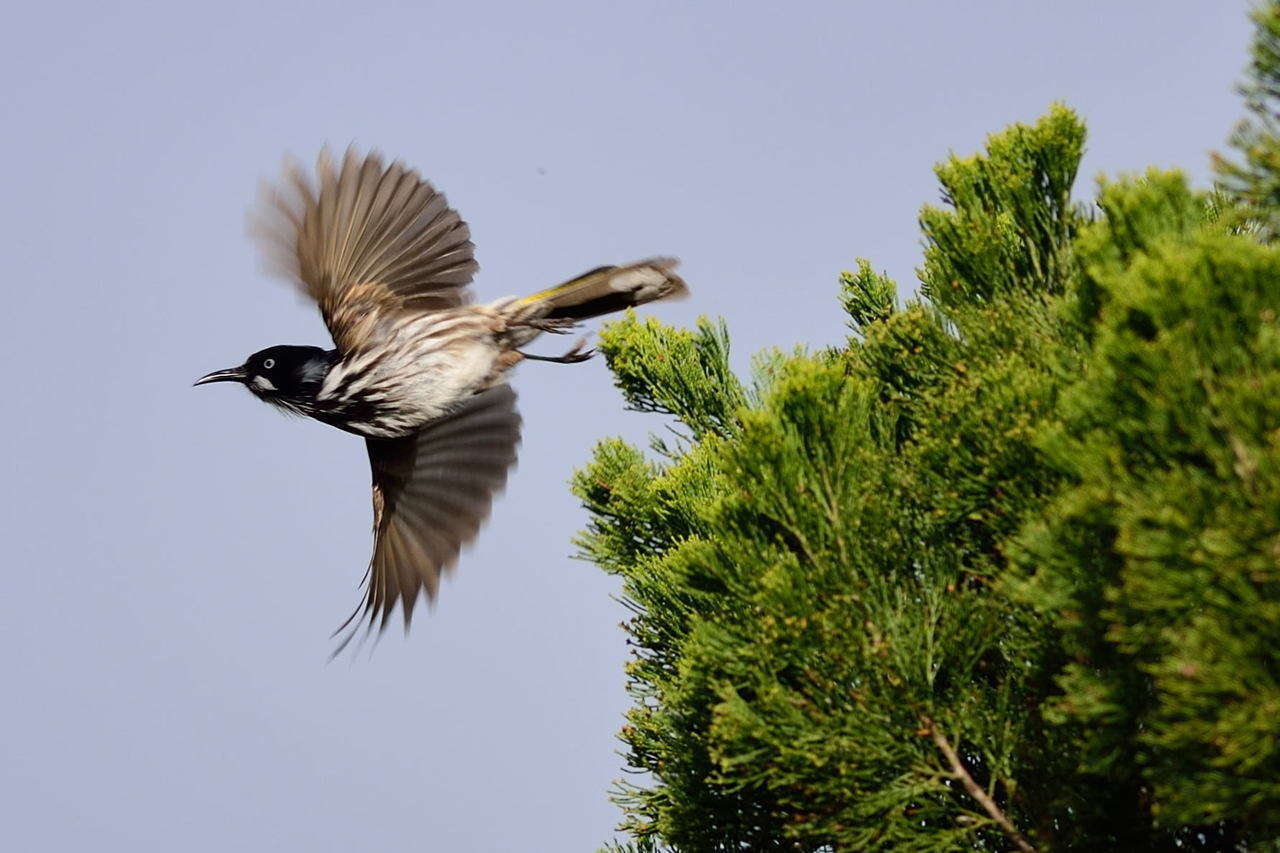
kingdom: Animalia
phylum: Chordata
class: Aves
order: Passeriformes
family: Meliphagidae
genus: Phylidonyris
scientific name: Phylidonyris novaehollandiae
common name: New holland honeyeater
